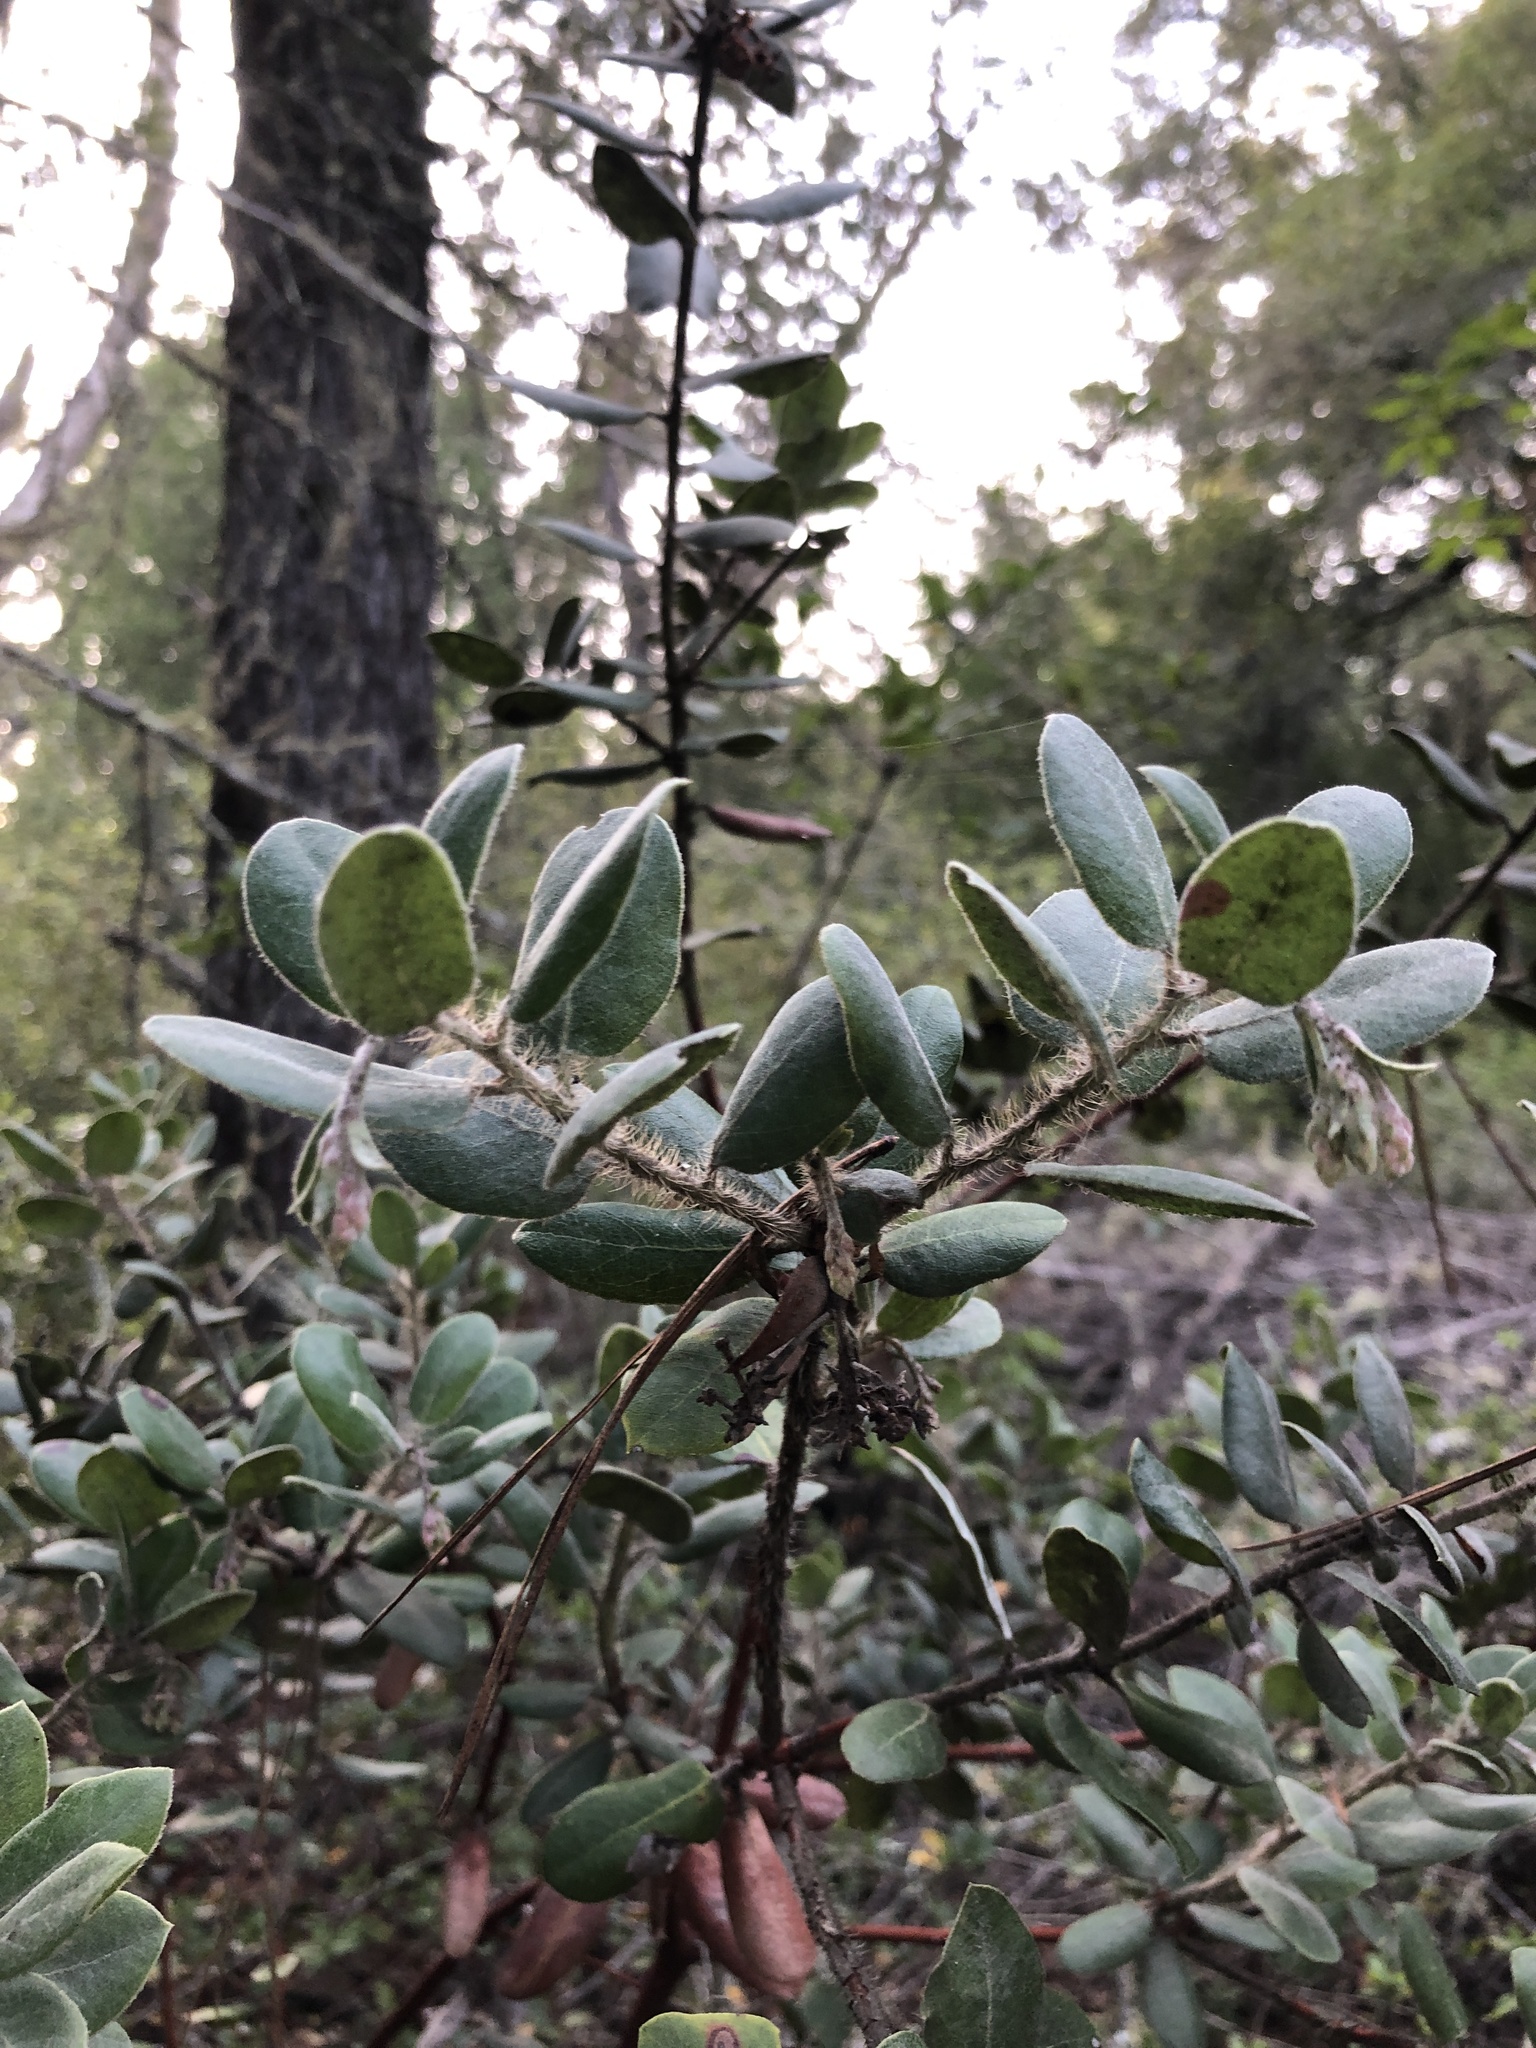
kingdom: Plantae
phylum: Tracheophyta
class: Magnoliopsida
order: Ericales
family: Ericaceae
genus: Arctostaphylos
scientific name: Arctostaphylos crustacea
